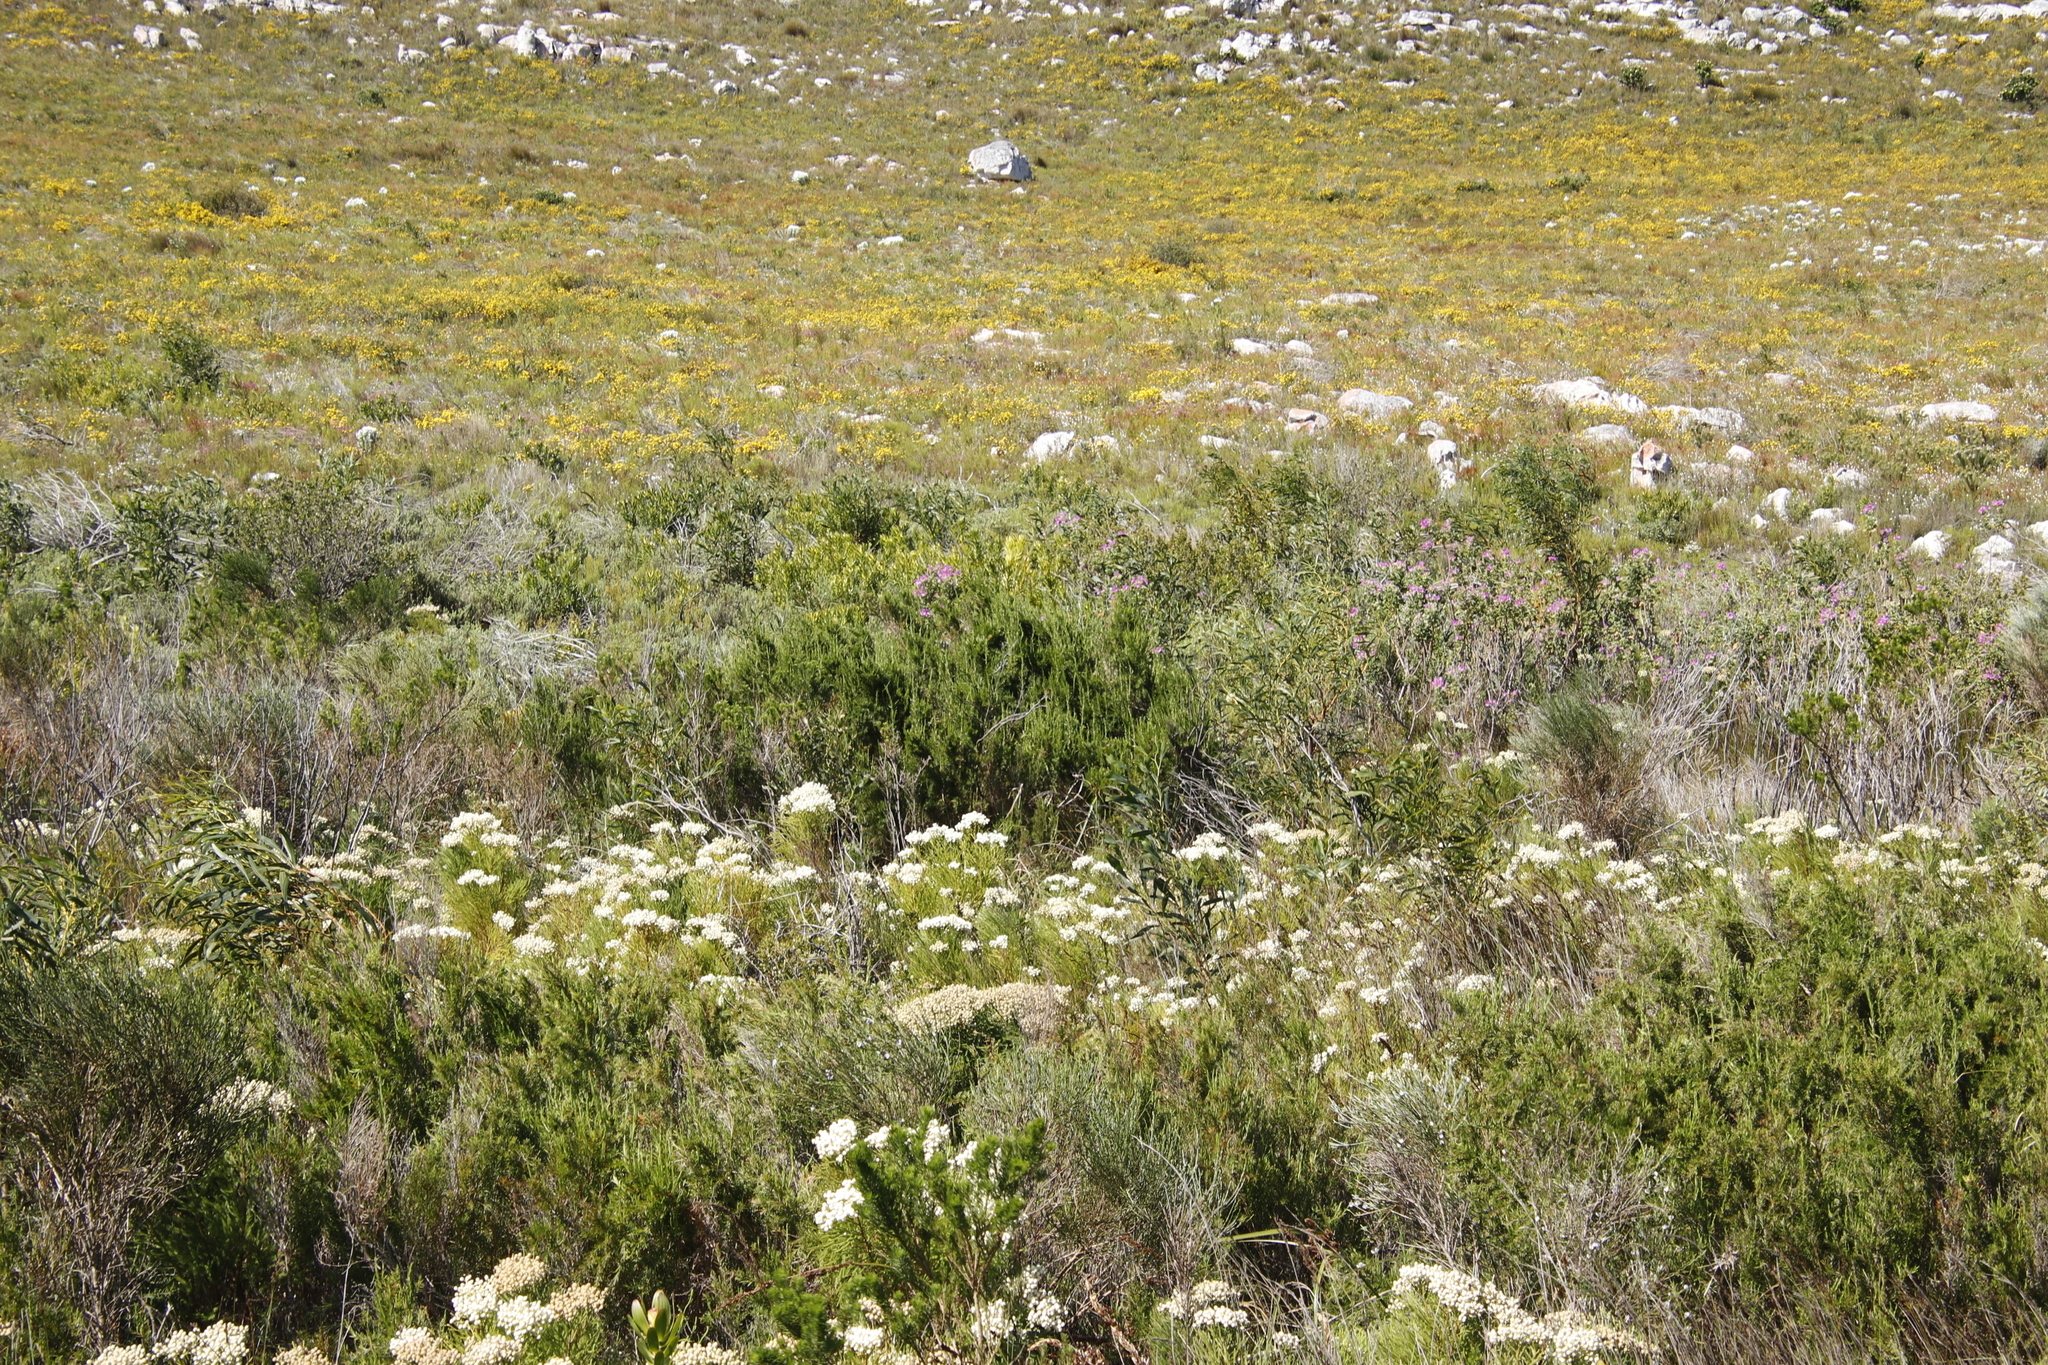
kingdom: Plantae
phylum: Tracheophyta
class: Magnoliopsida
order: Bruniales
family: Bruniaceae
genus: Berzelia
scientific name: Berzelia lanuginosa
